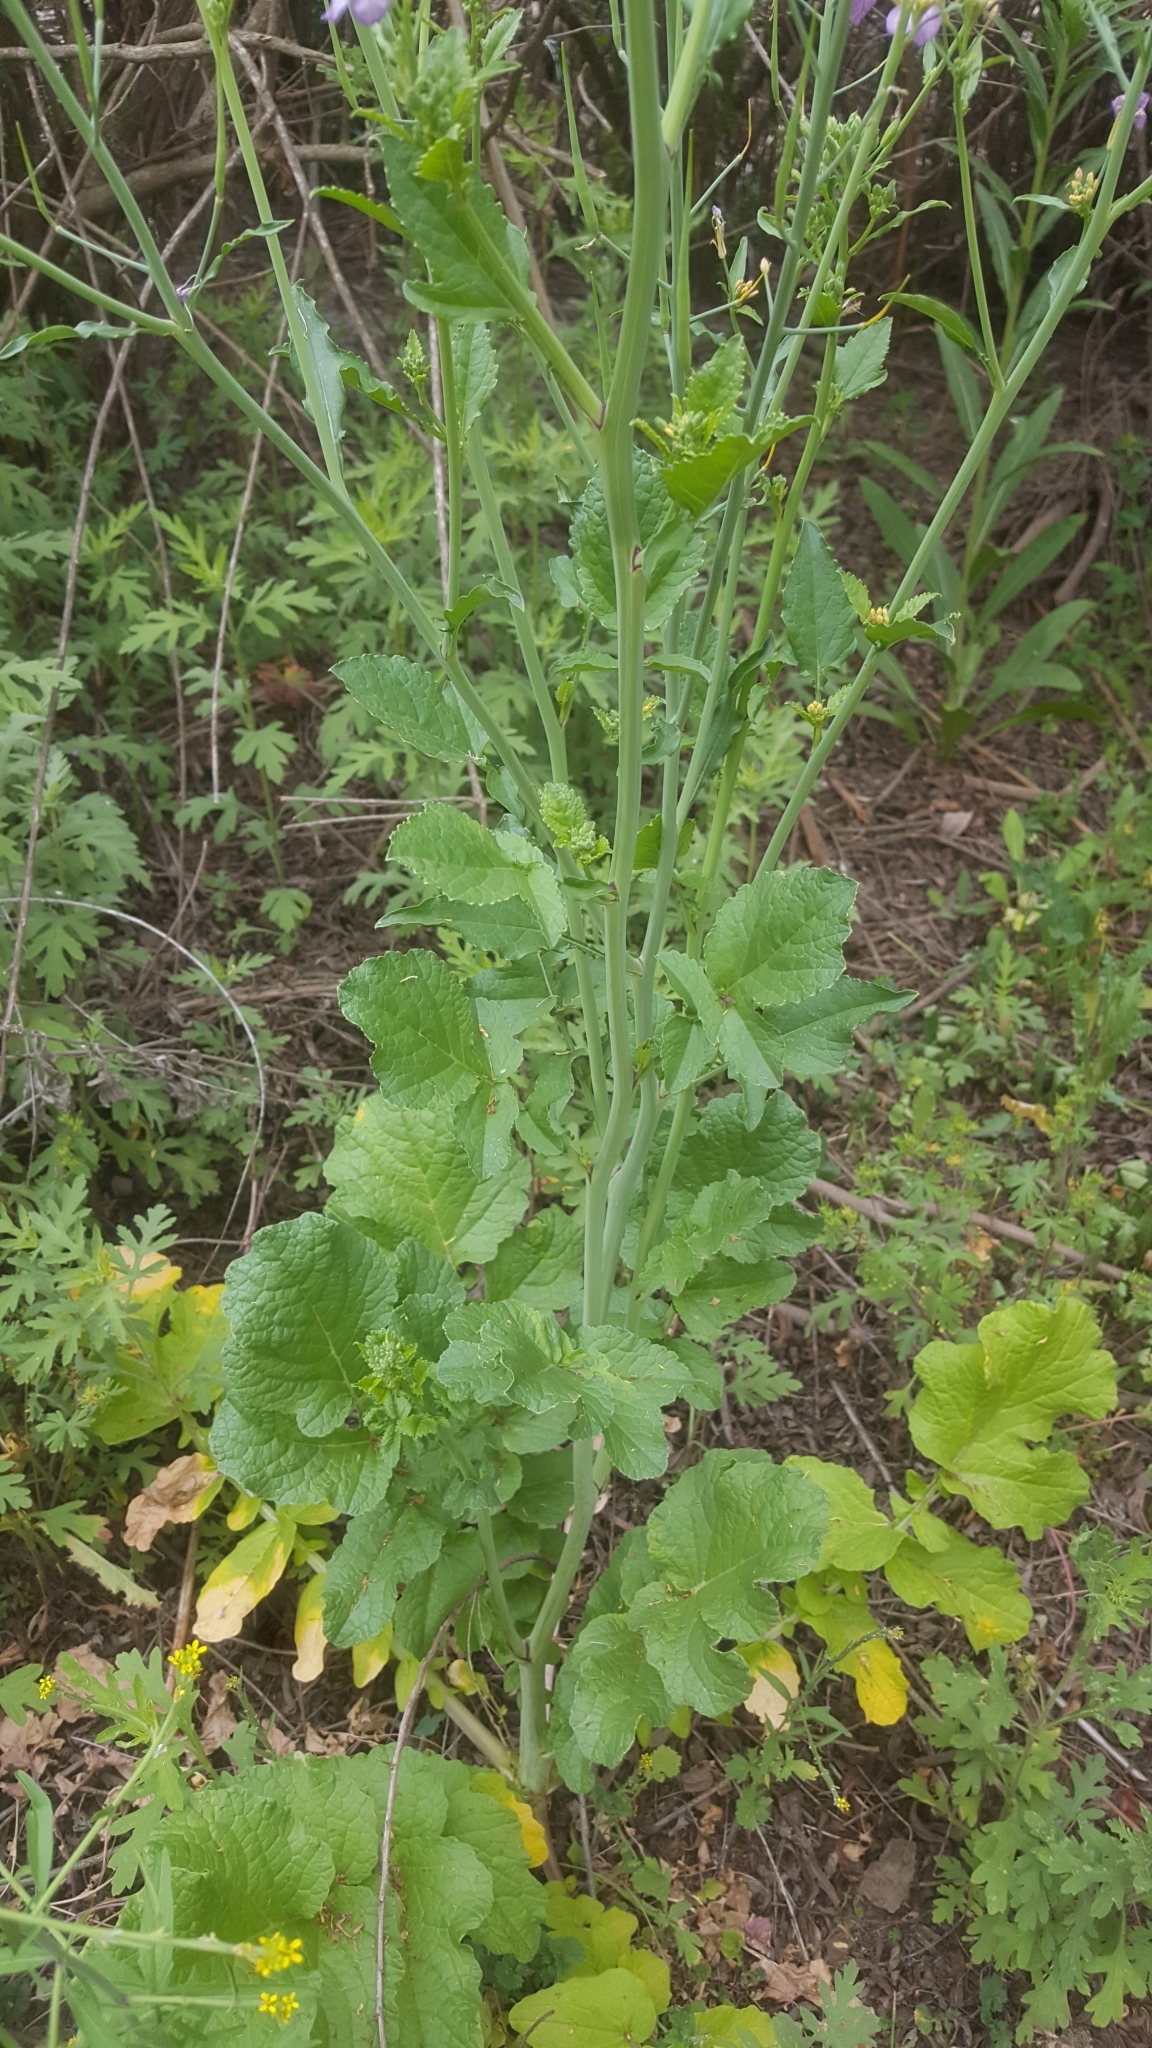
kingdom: Plantae
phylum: Tracheophyta
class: Magnoliopsida
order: Brassicales
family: Brassicaceae
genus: Raphanus
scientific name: Raphanus sativus
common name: Cultivated radish
